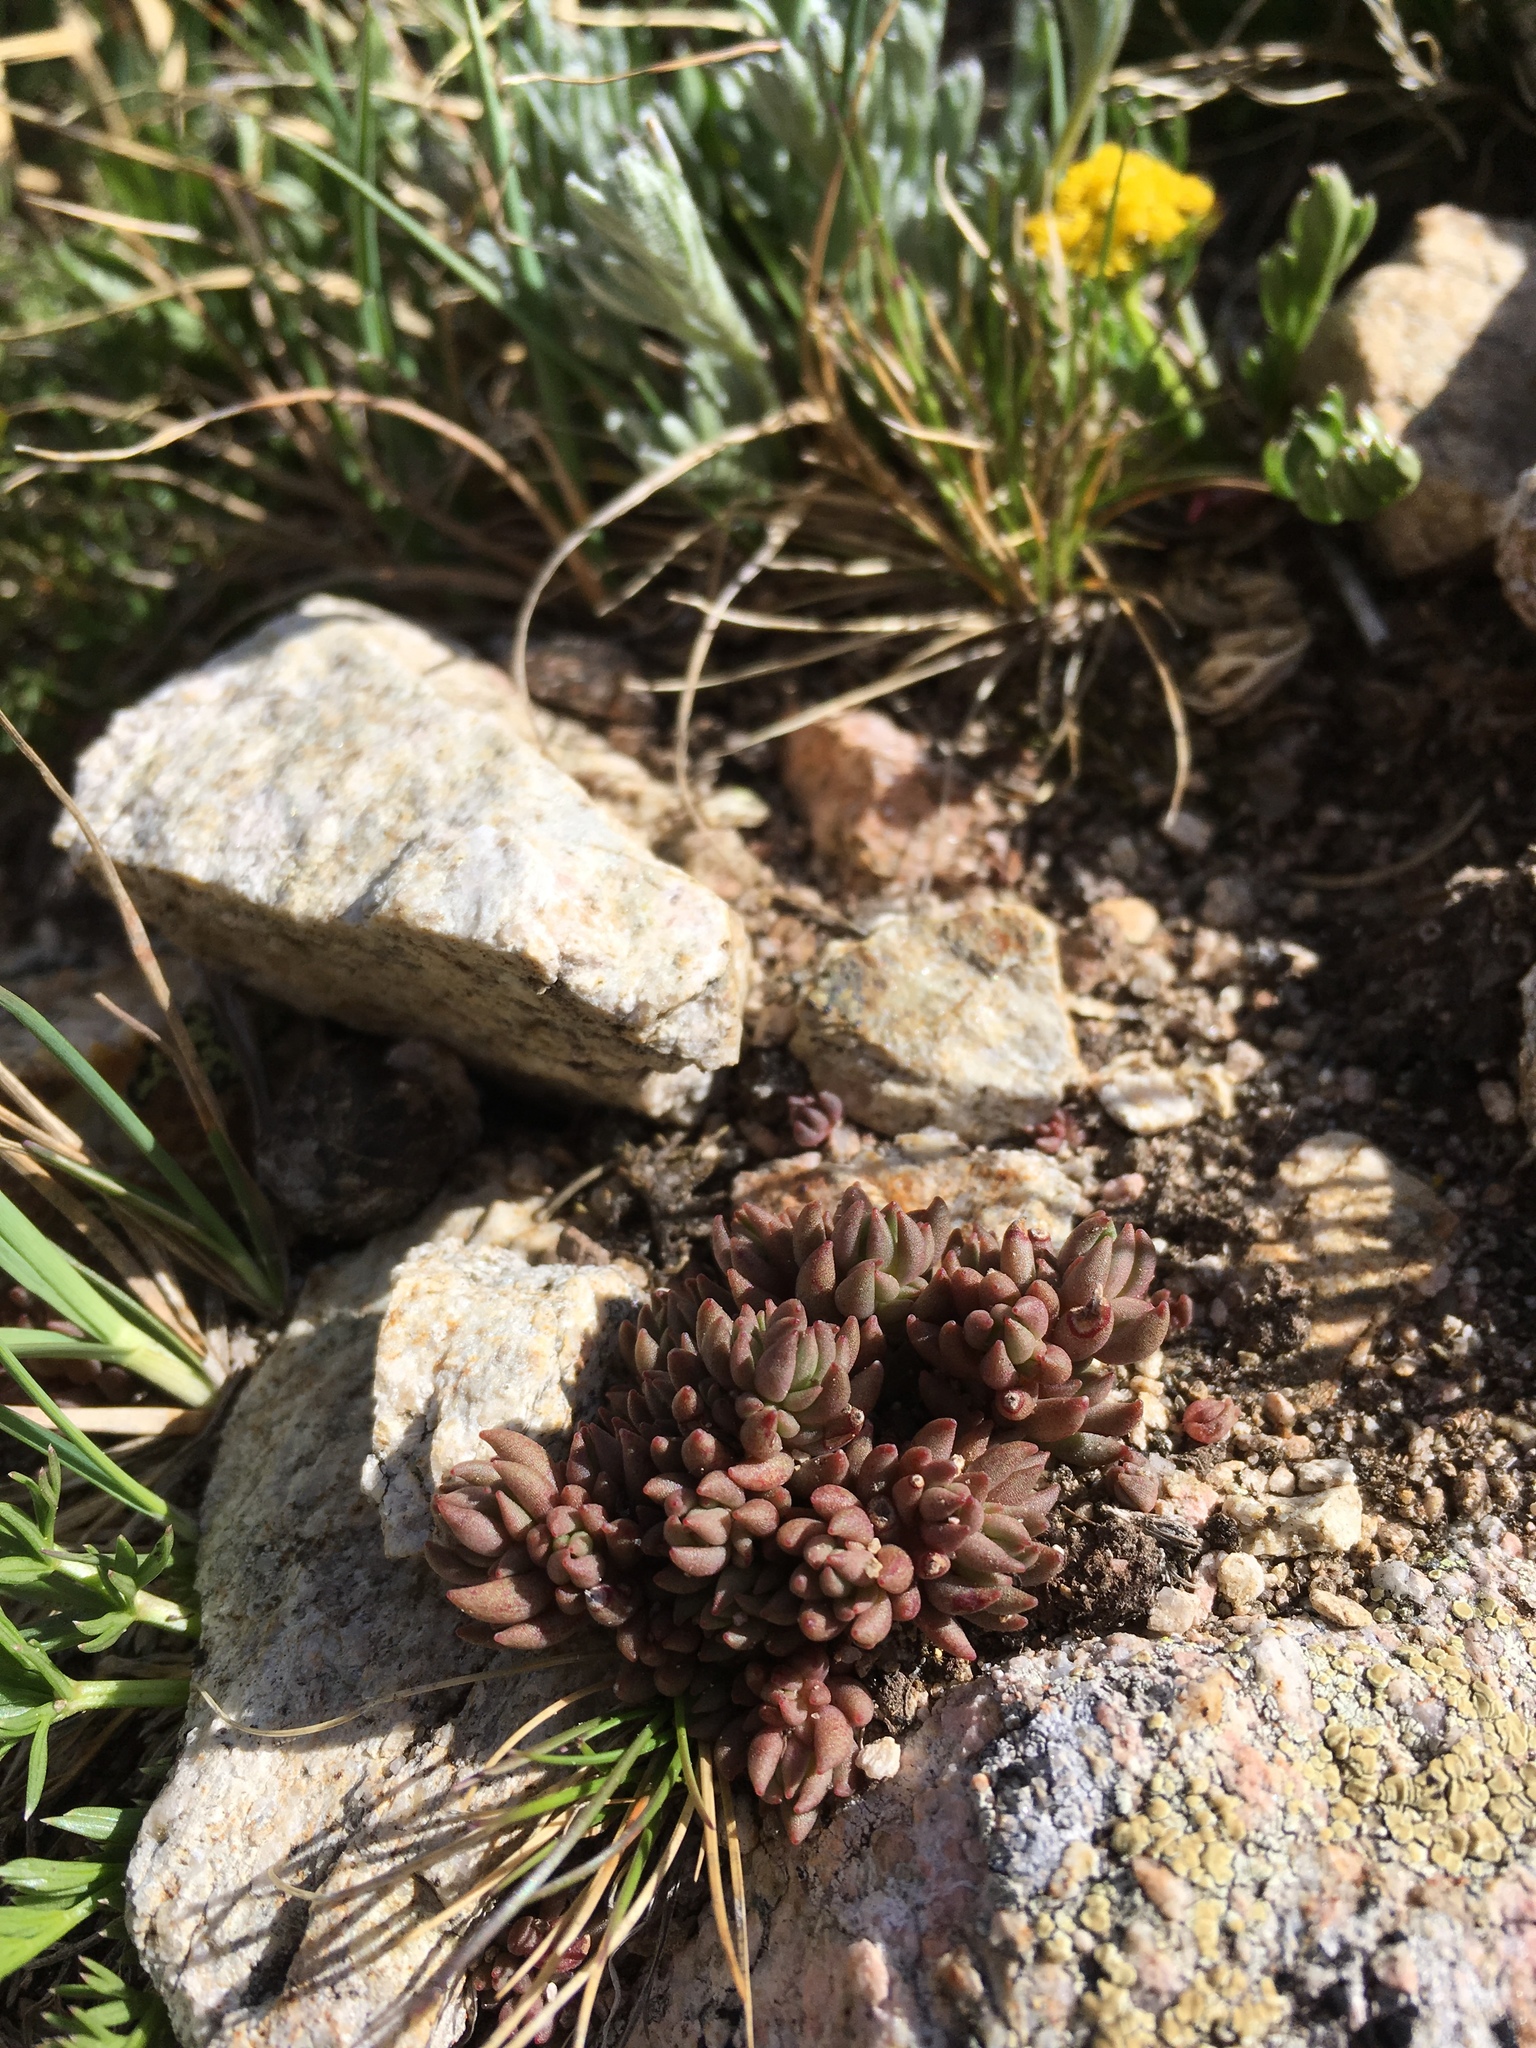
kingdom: Plantae
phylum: Tracheophyta
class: Magnoliopsida
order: Saxifragales
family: Crassulaceae
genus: Sedum
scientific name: Sedum lanceolatum
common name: Common stonecrop
